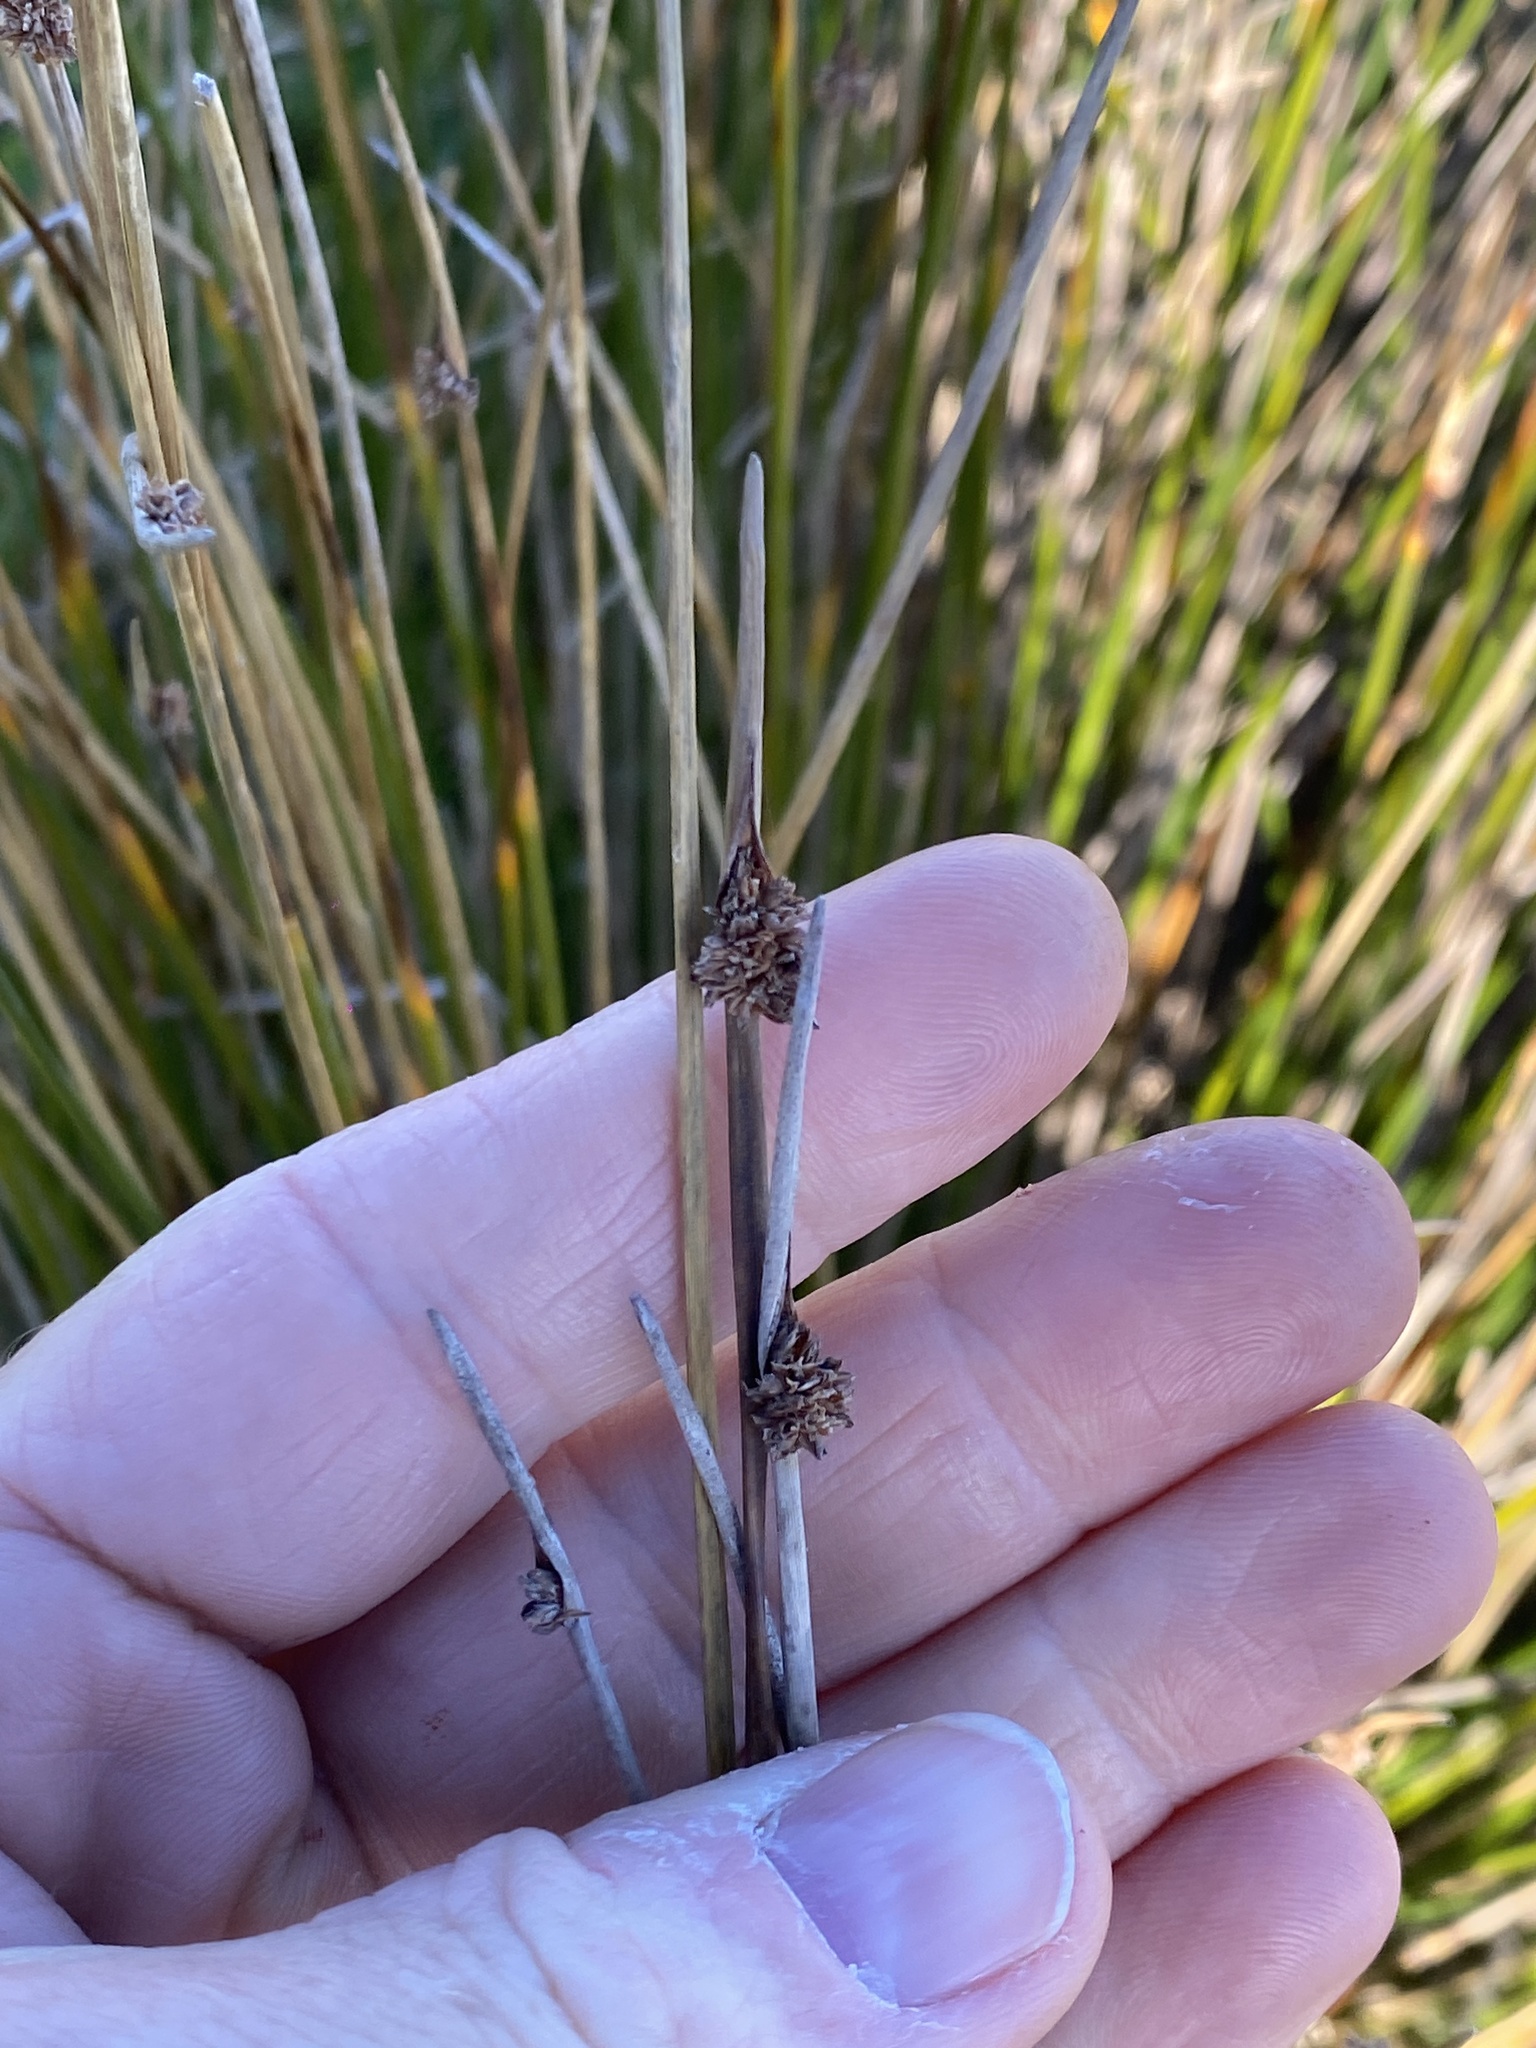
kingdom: Plantae
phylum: Tracheophyta
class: Liliopsida
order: Poales
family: Cyperaceae
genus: Ficinia
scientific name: Ficinia nodosa
